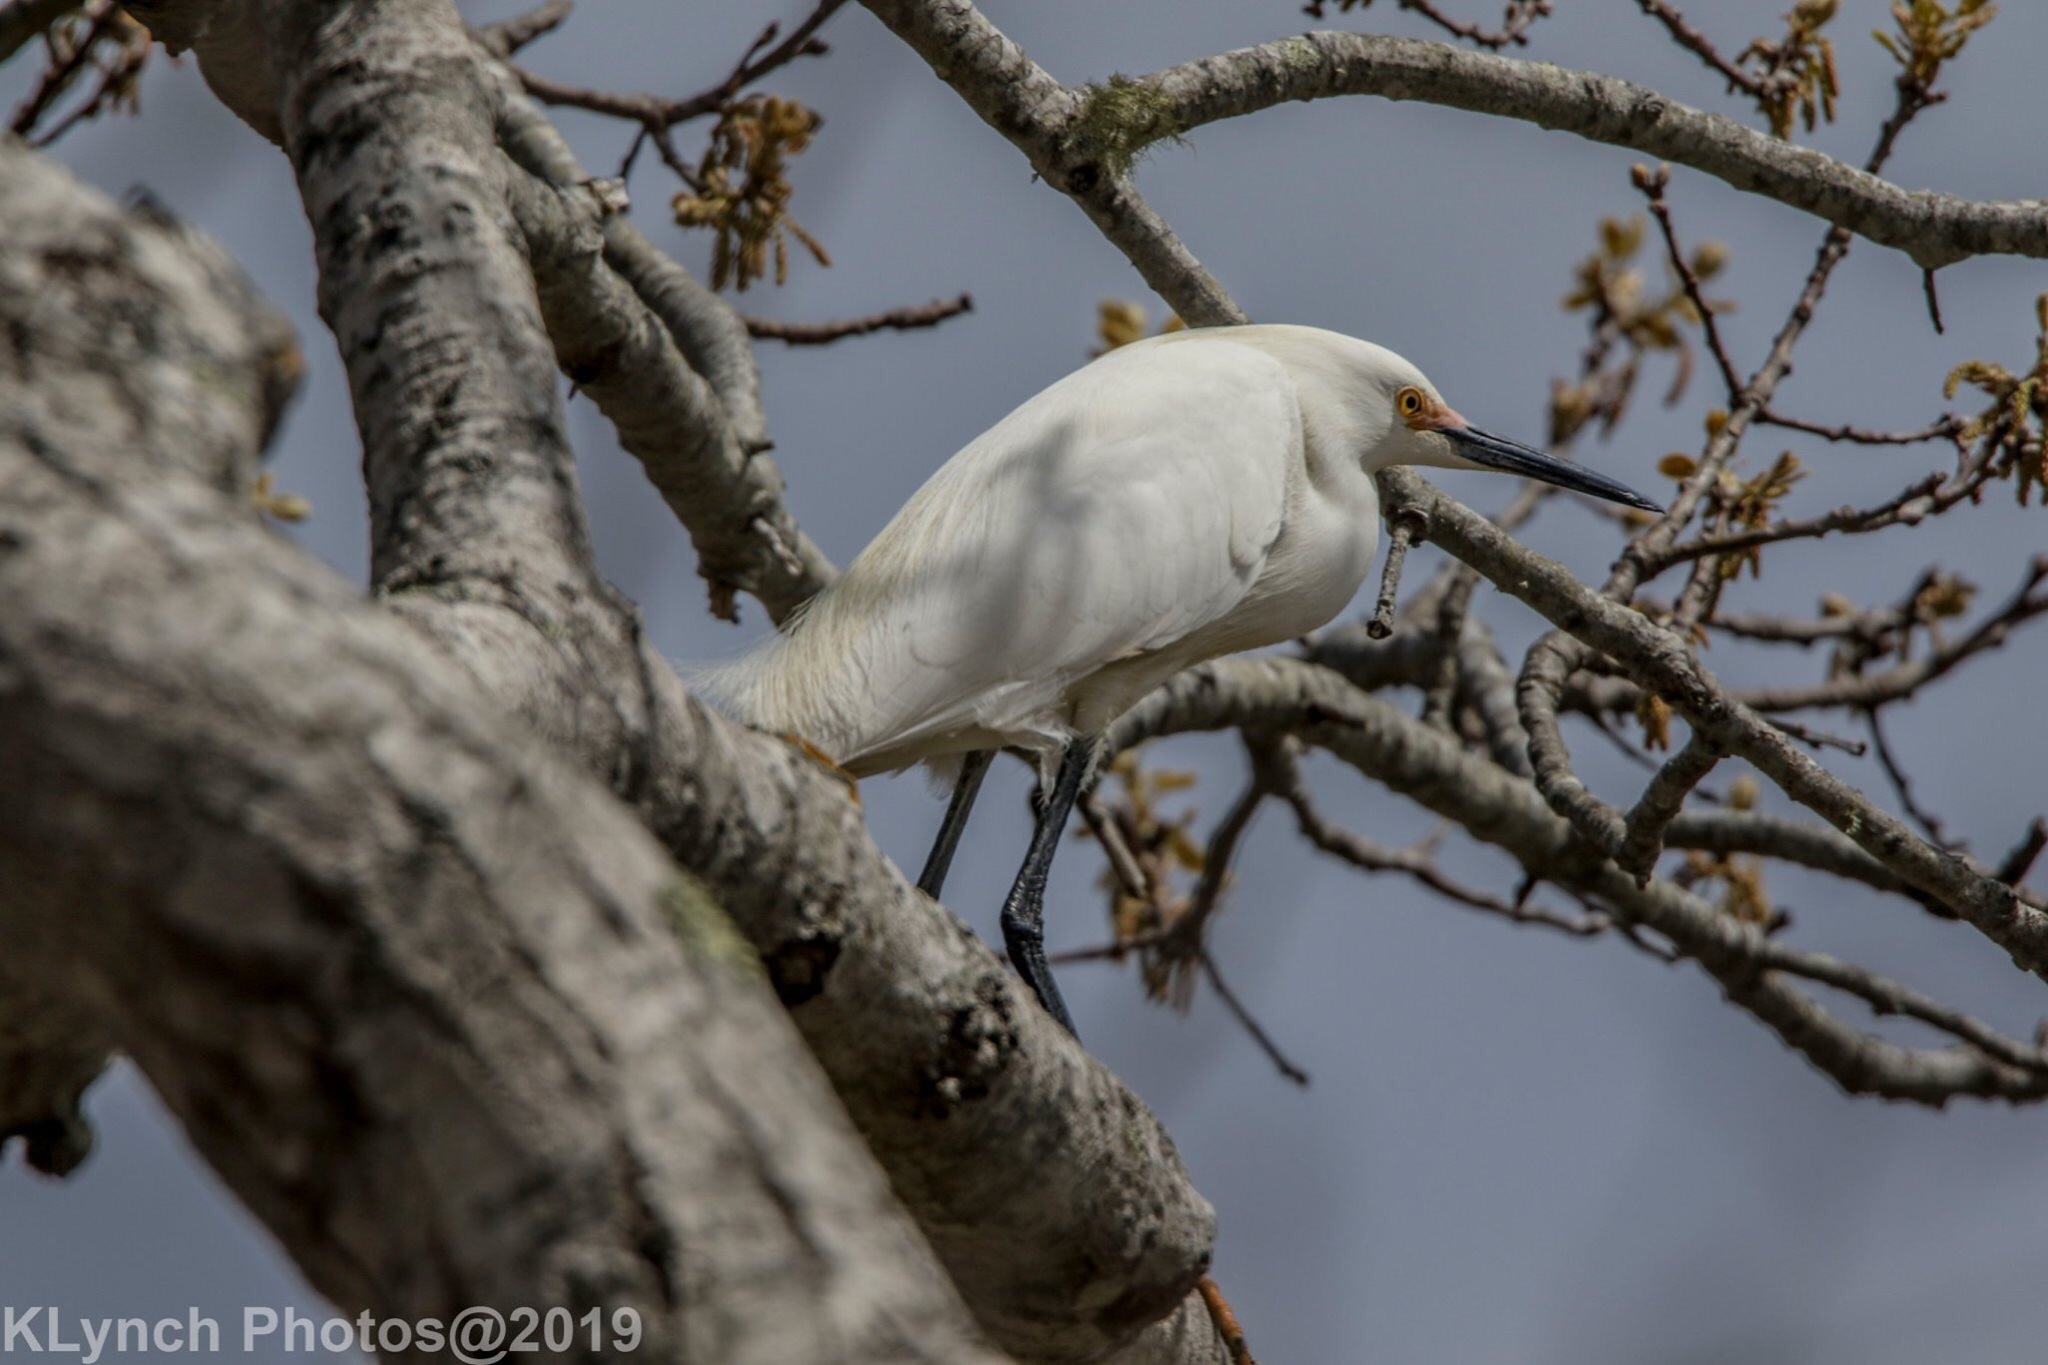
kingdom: Animalia
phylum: Chordata
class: Aves
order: Pelecaniformes
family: Ardeidae
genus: Egretta
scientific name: Egretta thula
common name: Snowy egret
